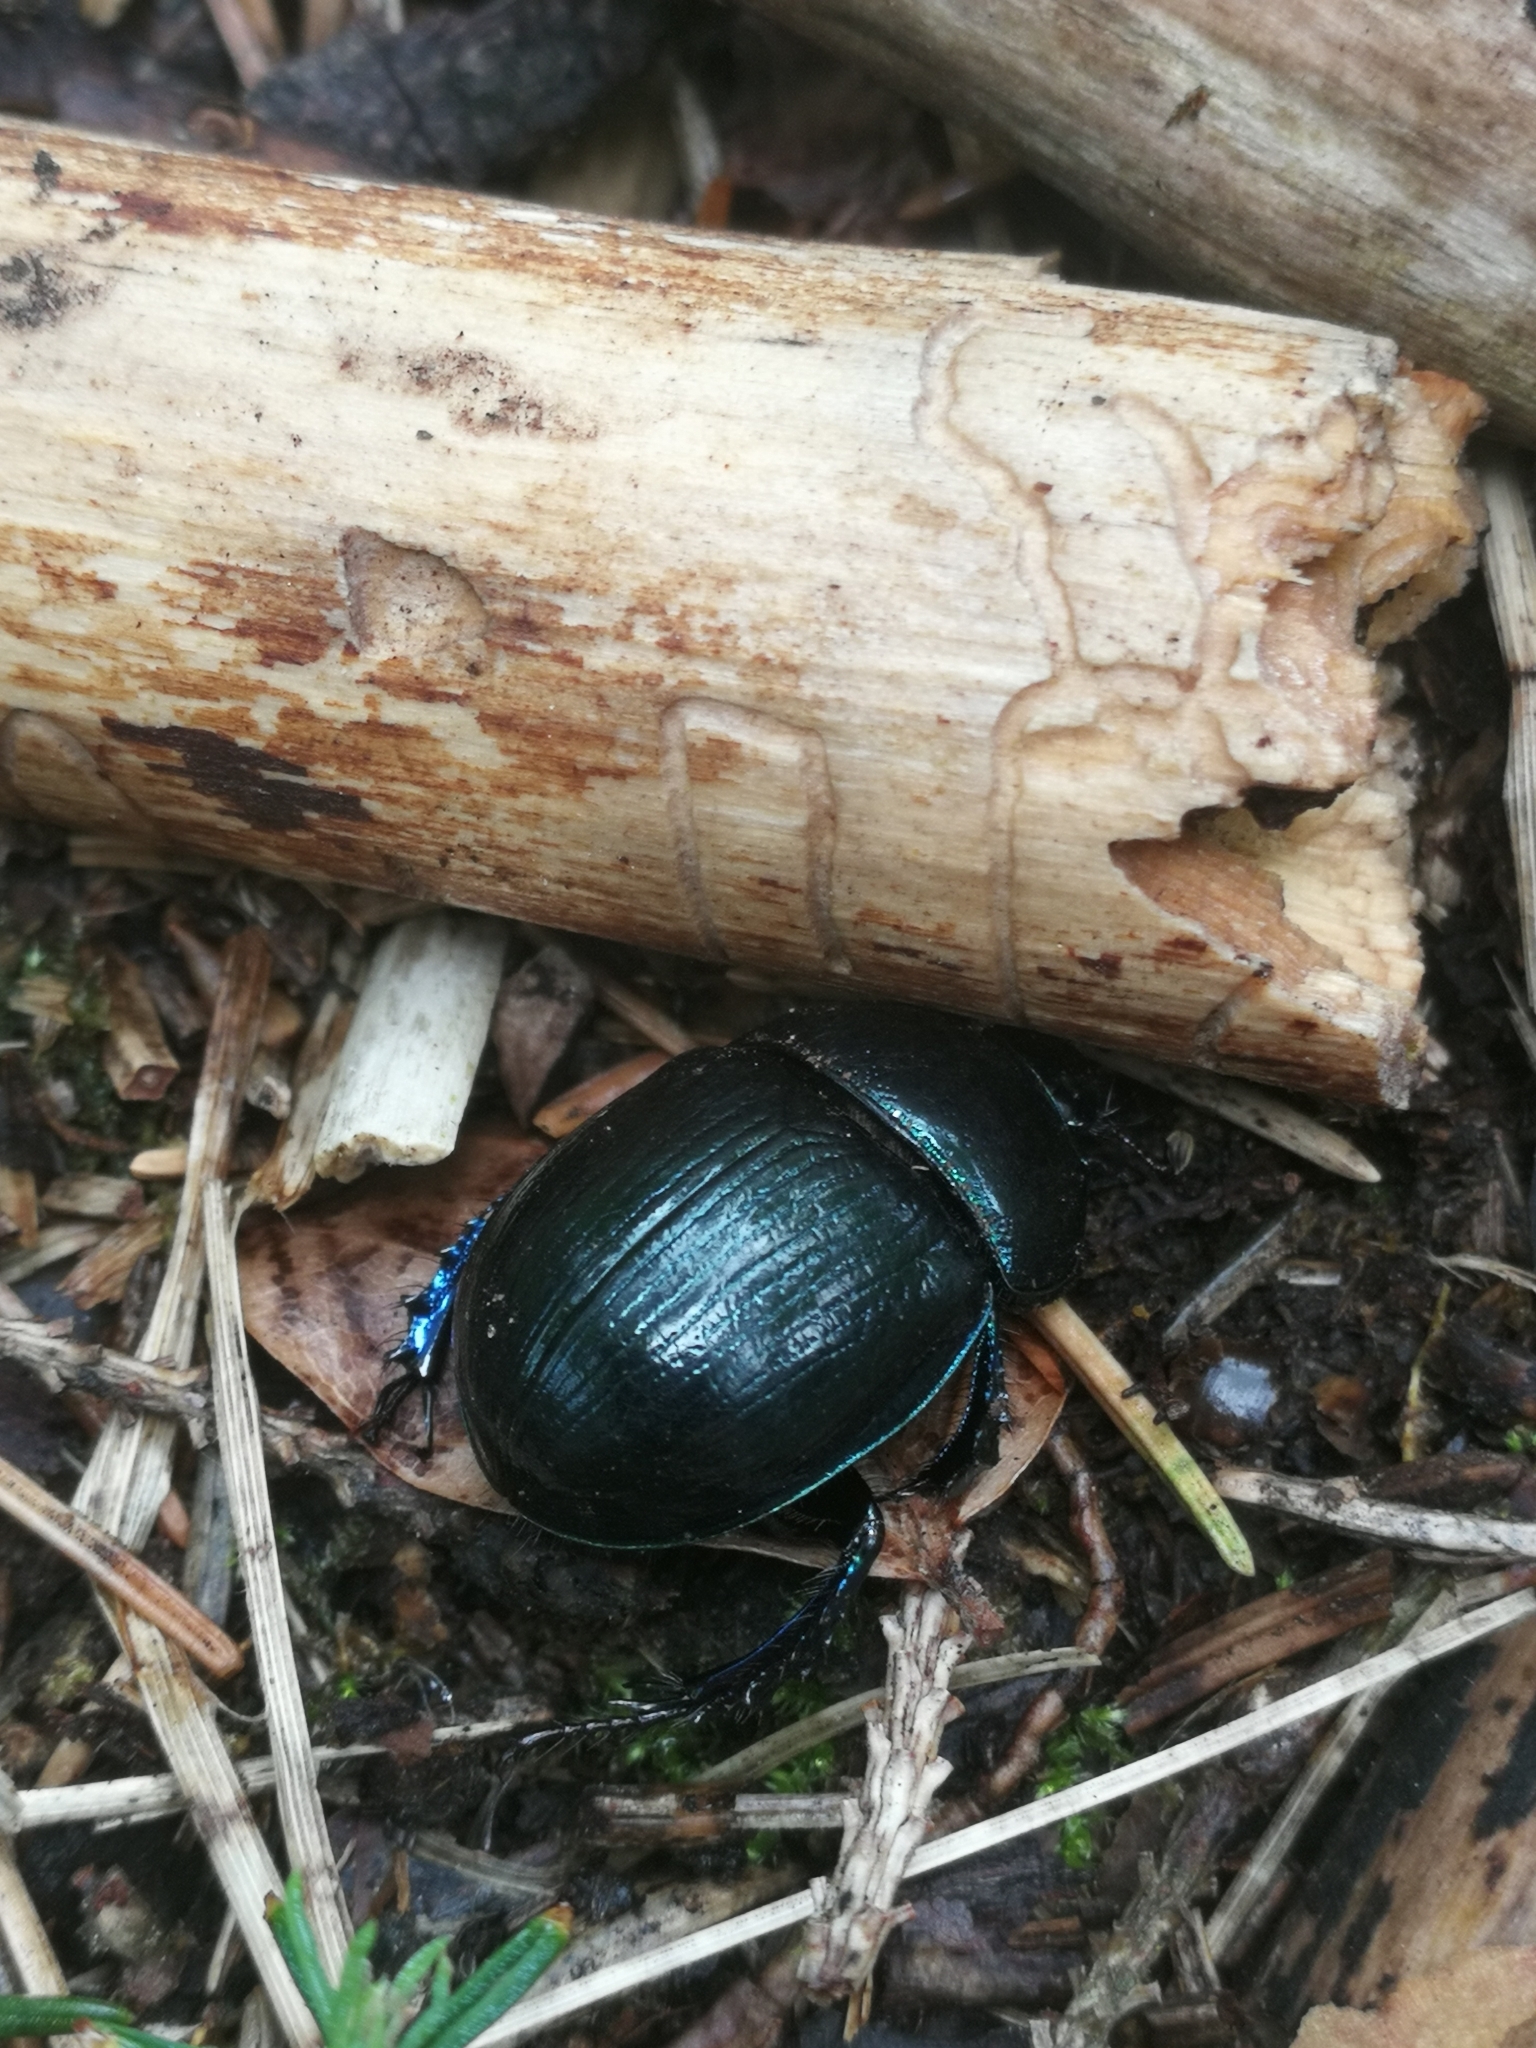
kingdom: Animalia
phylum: Arthropoda
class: Insecta
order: Coleoptera
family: Geotrupidae
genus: Anoplotrupes
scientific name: Anoplotrupes stercorosus
